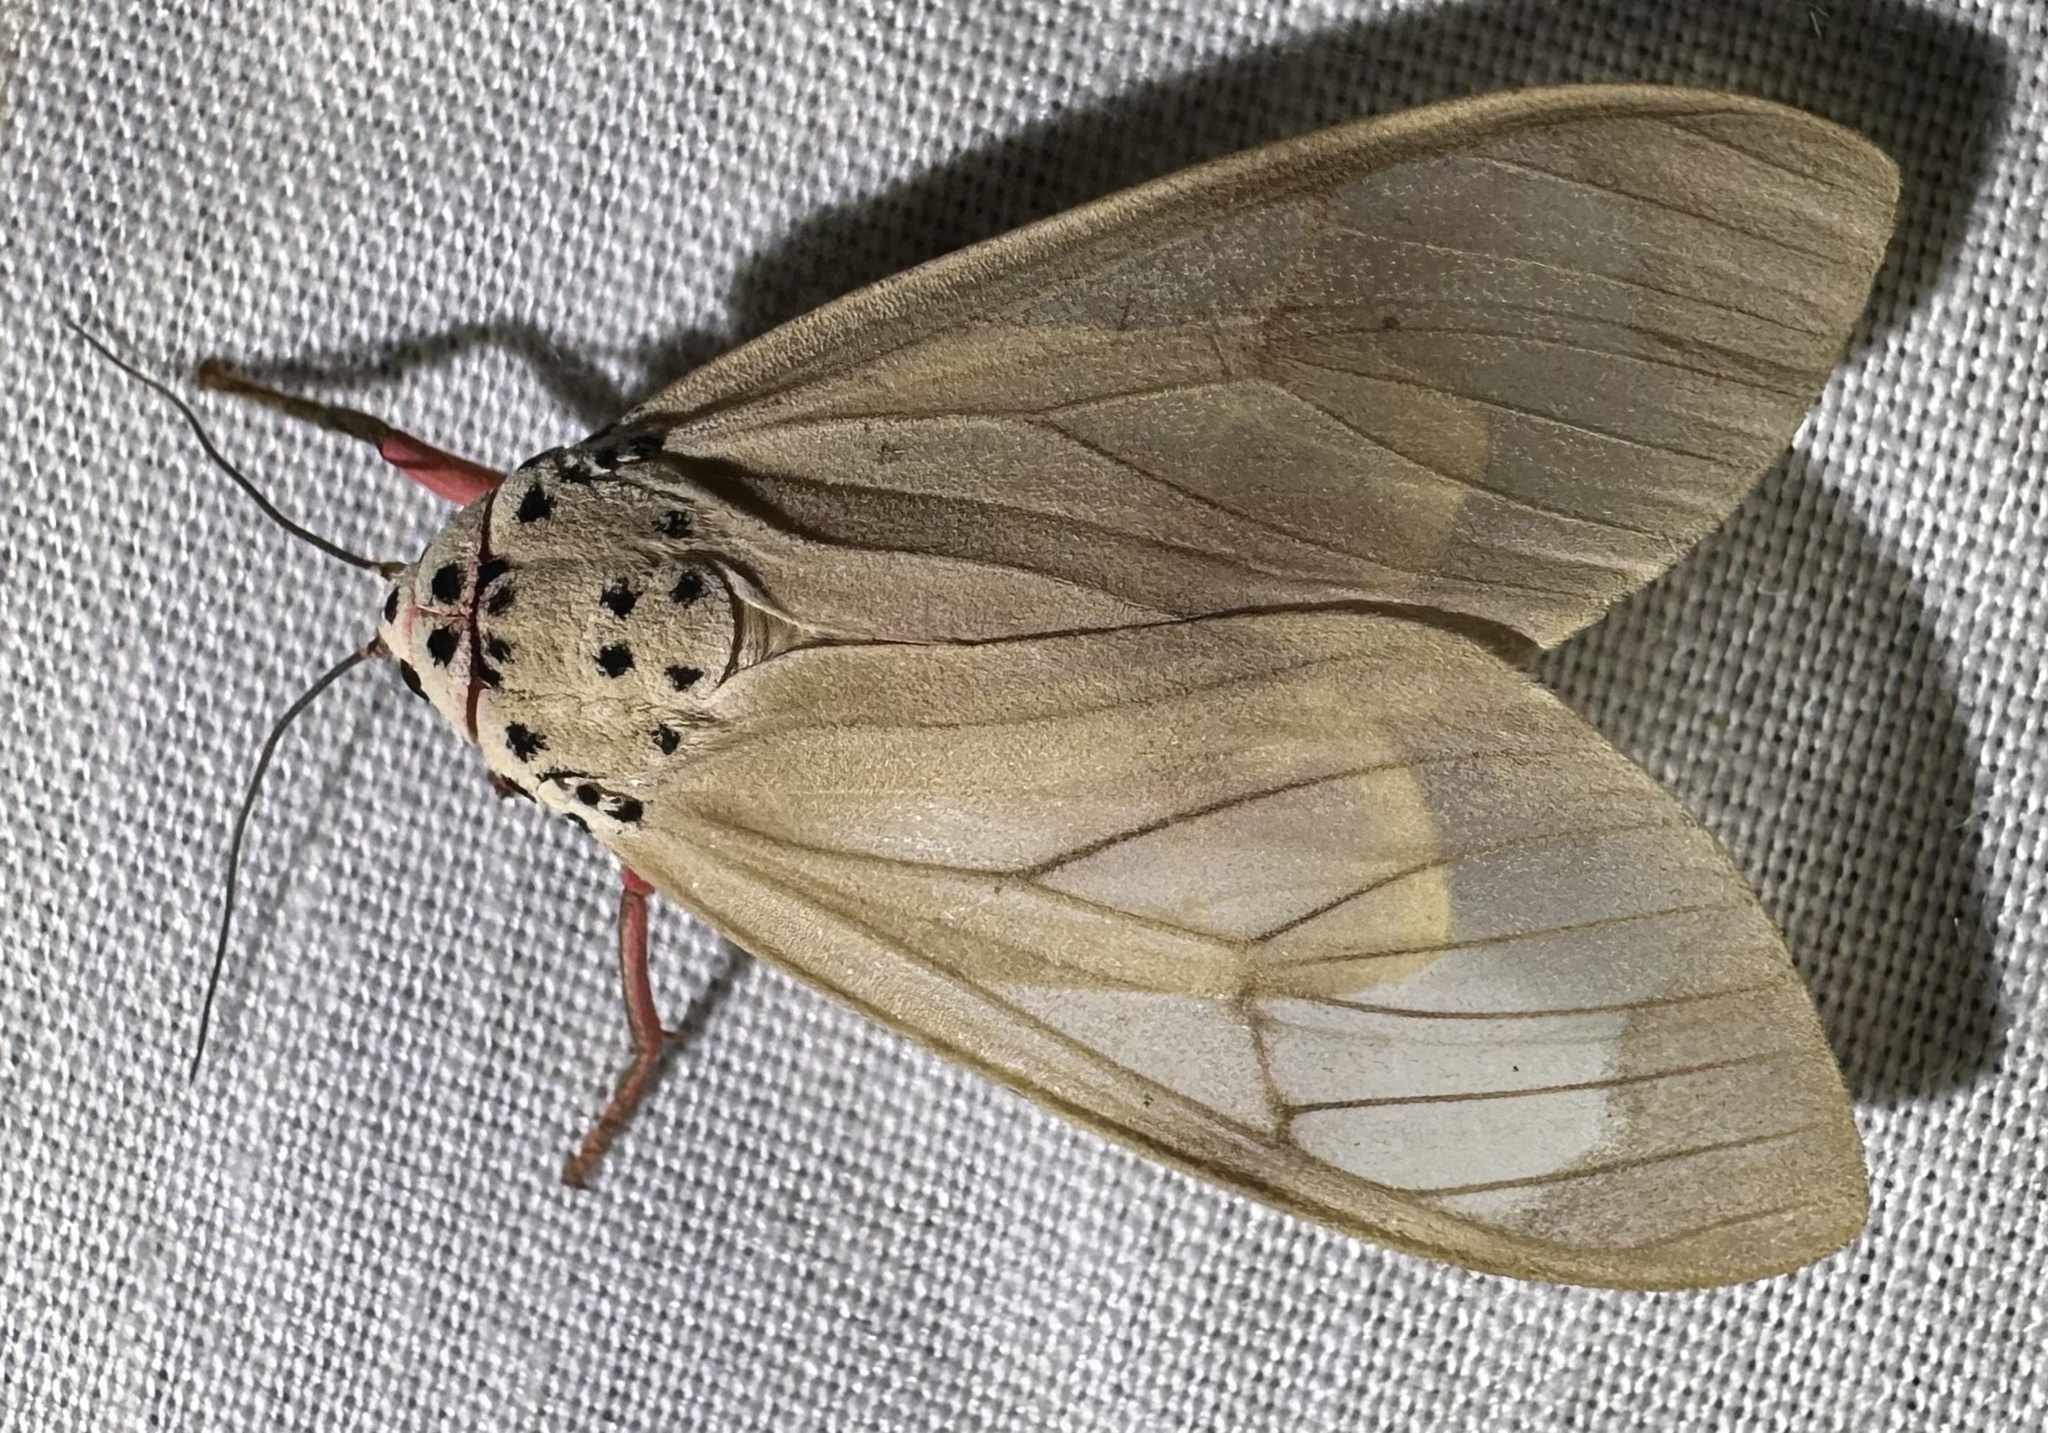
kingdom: Animalia
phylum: Arthropoda
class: Insecta
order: Lepidoptera
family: Erebidae
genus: Amerila
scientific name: Amerila affinis
